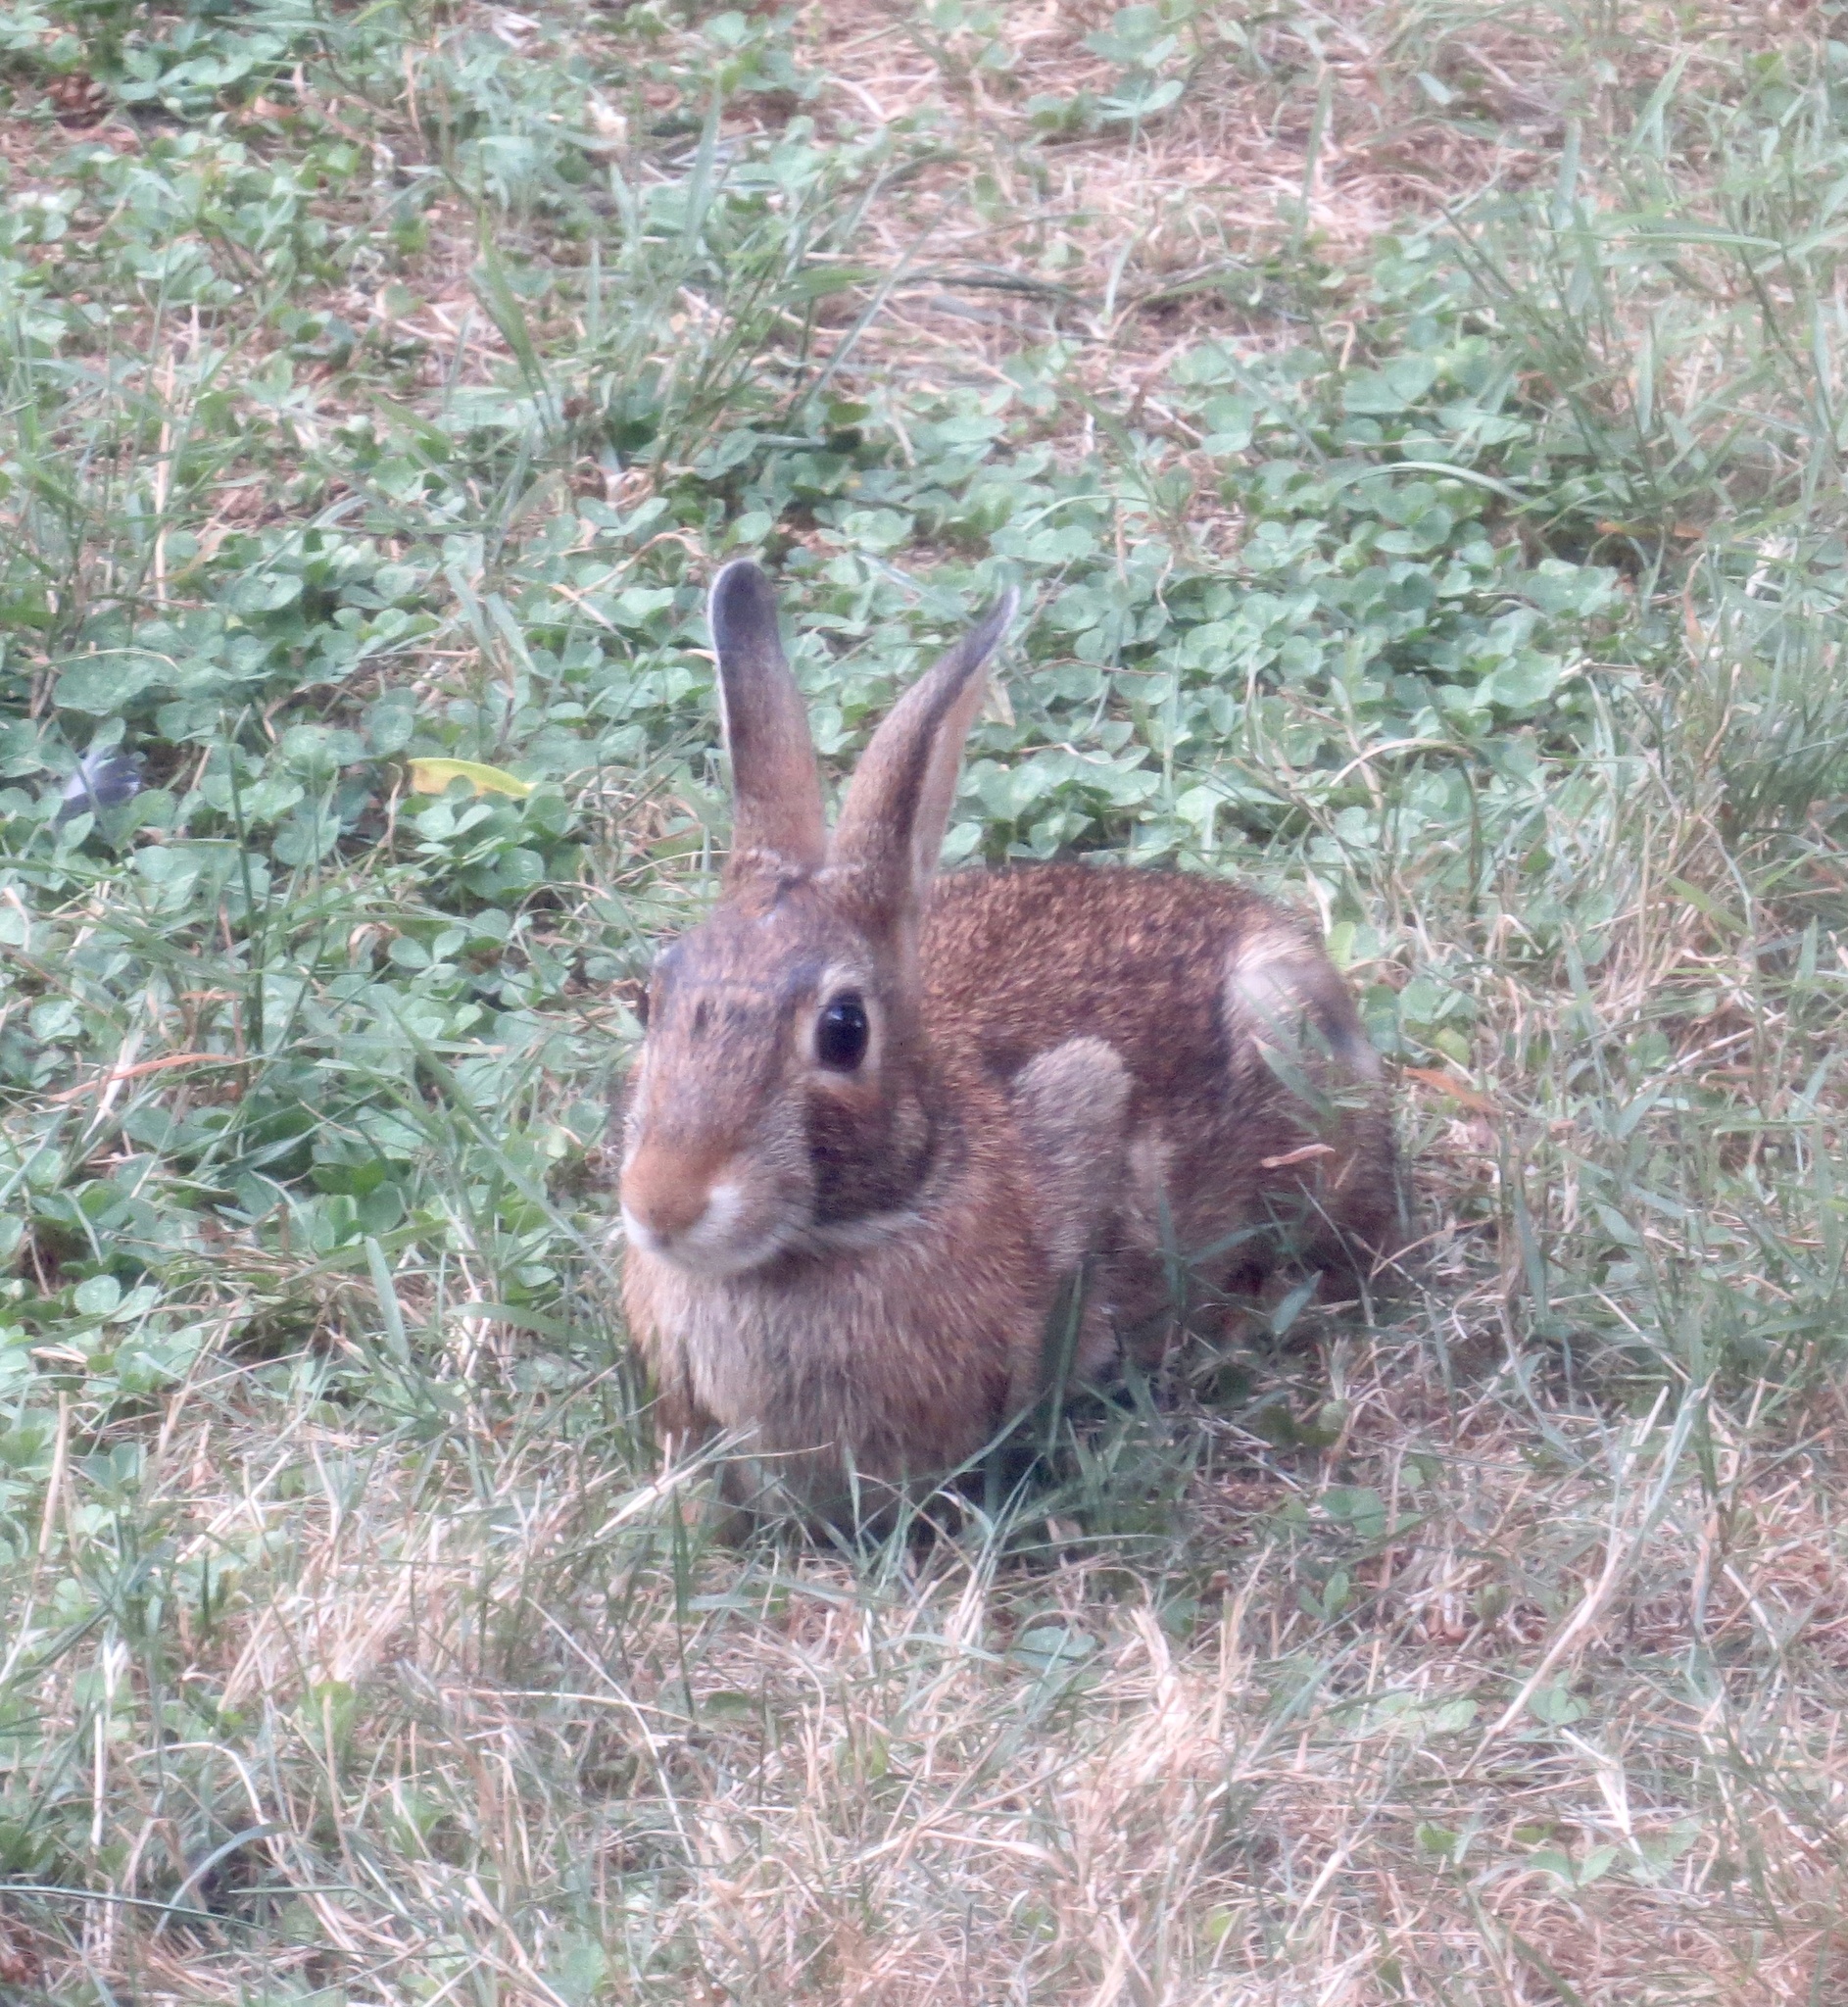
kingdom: Animalia
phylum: Chordata
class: Mammalia
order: Lagomorpha
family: Leporidae
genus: Sylvilagus
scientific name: Sylvilagus floridanus
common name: Eastern cottontail
